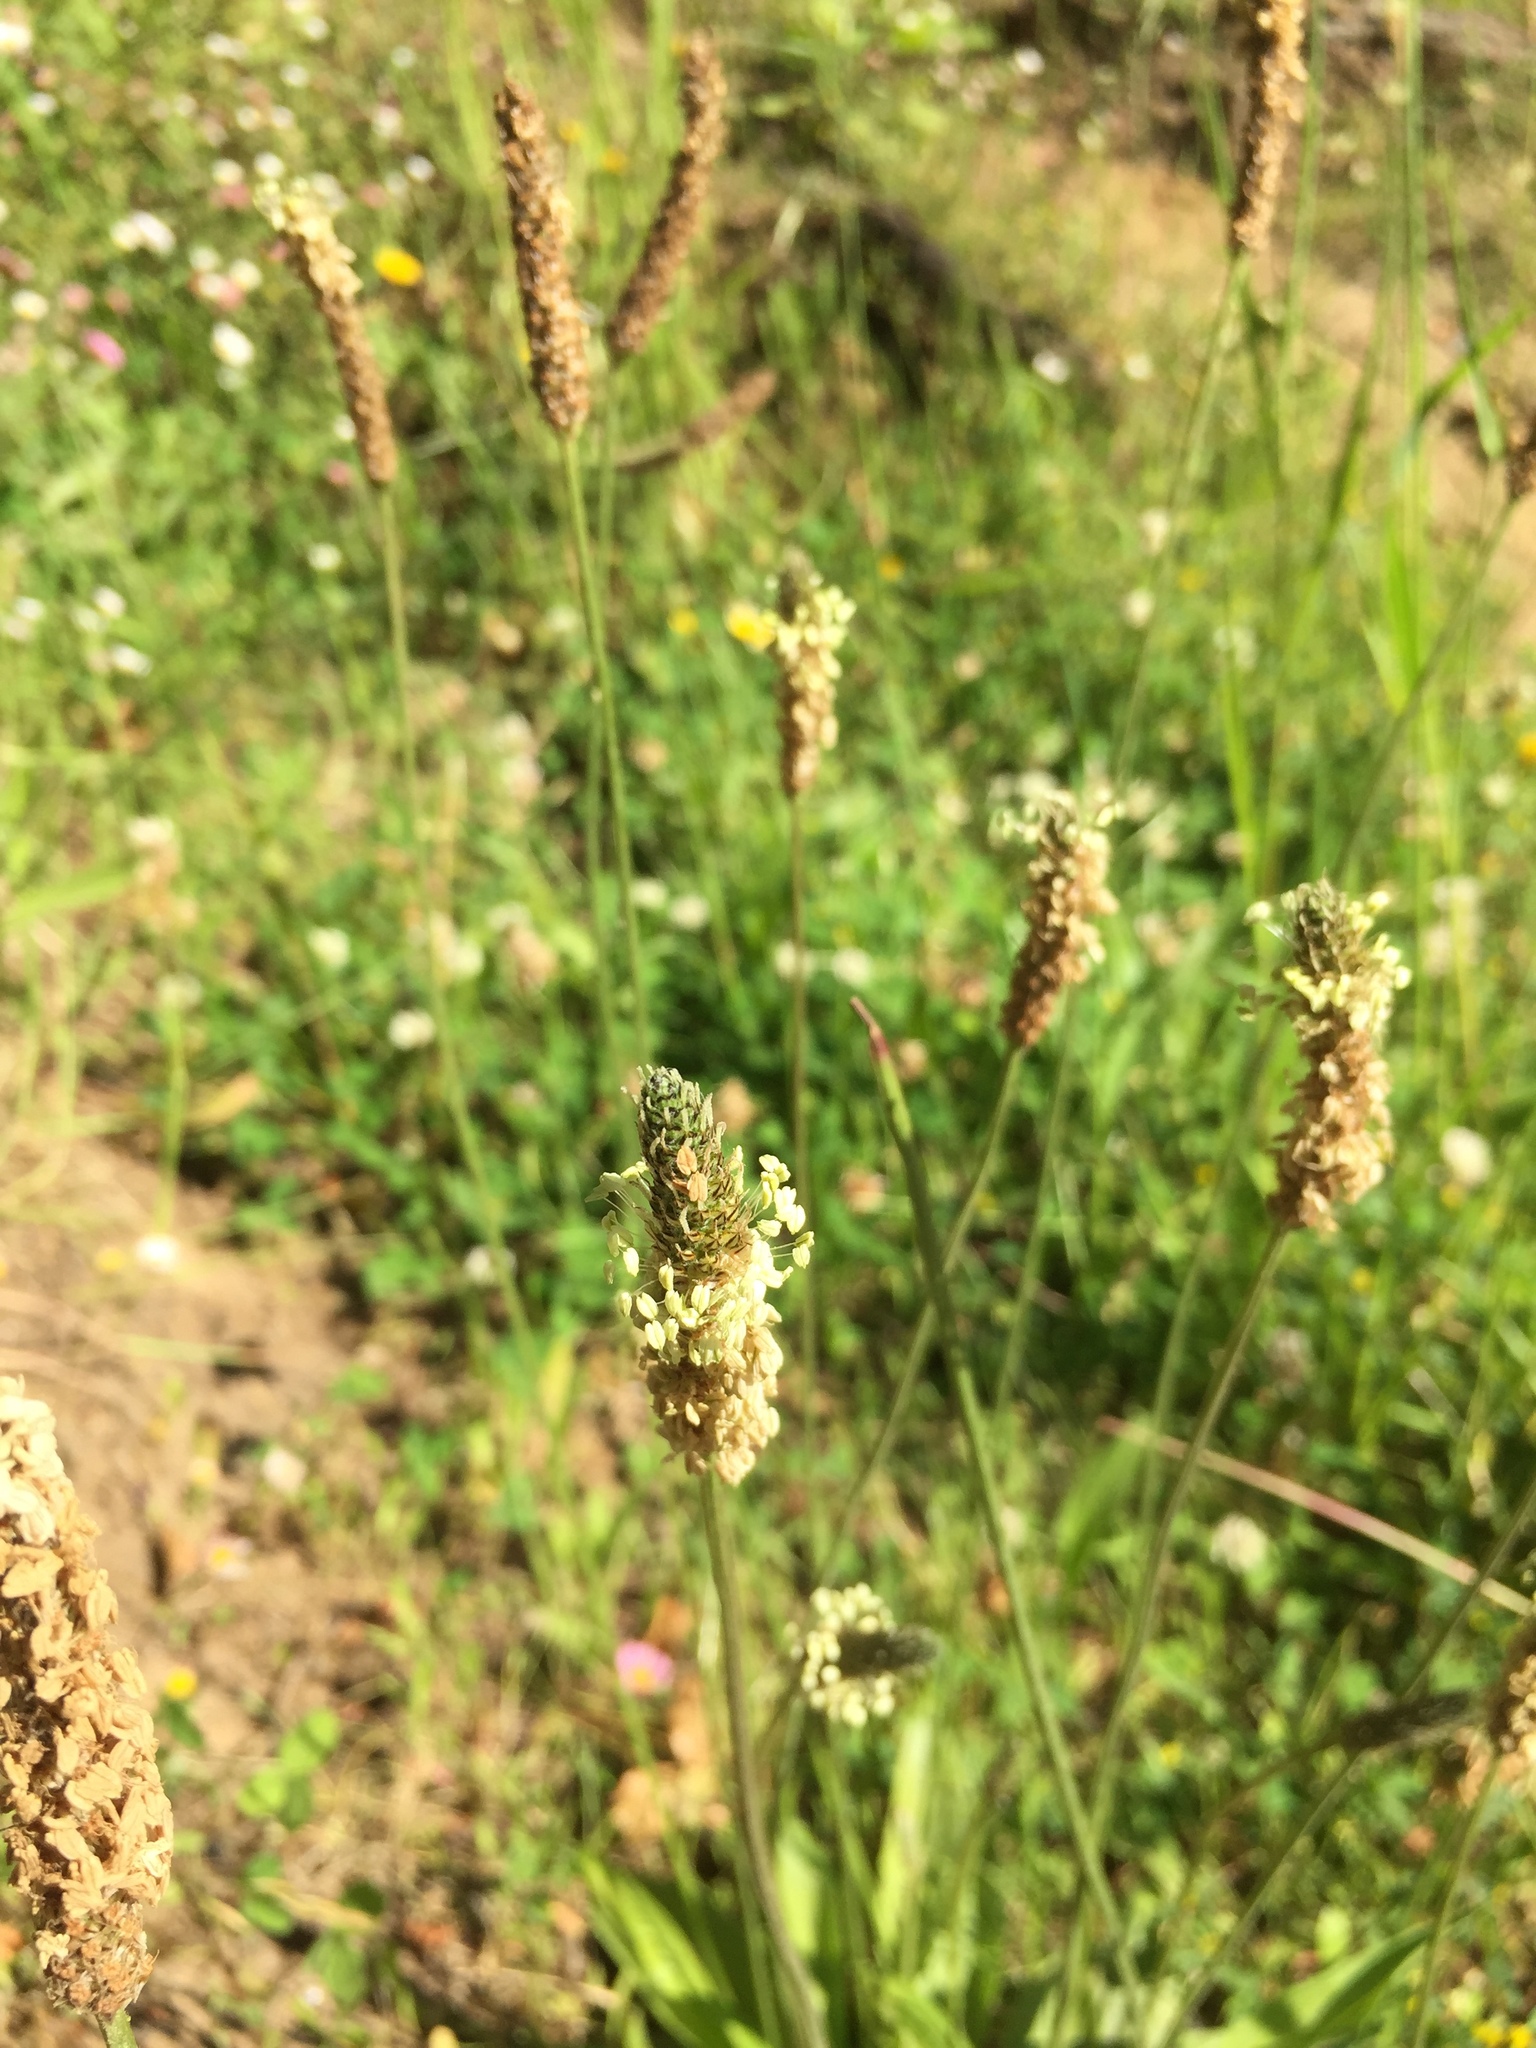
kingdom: Plantae
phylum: Tracheophyta
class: Magnoliopsida
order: Lamiales
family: Plantaginaceae
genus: Plantago
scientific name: Plantago lanceolata
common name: Ribwort plantain
